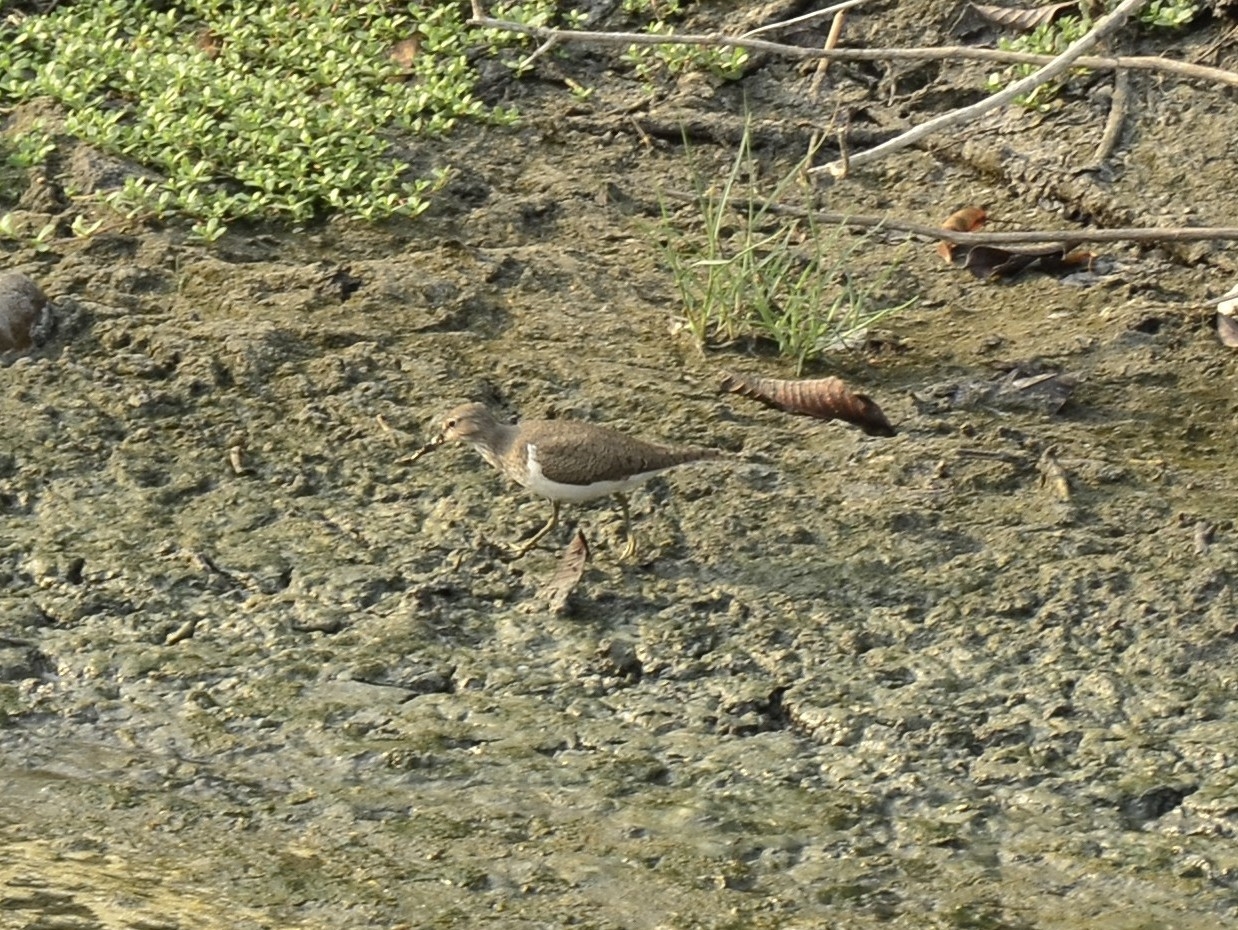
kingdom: Animalia
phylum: Chordata
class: Aves
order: Charadriiformes
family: Scolopacidae
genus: Actitis
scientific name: Actitis hypoleucos
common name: Common sandpiper
